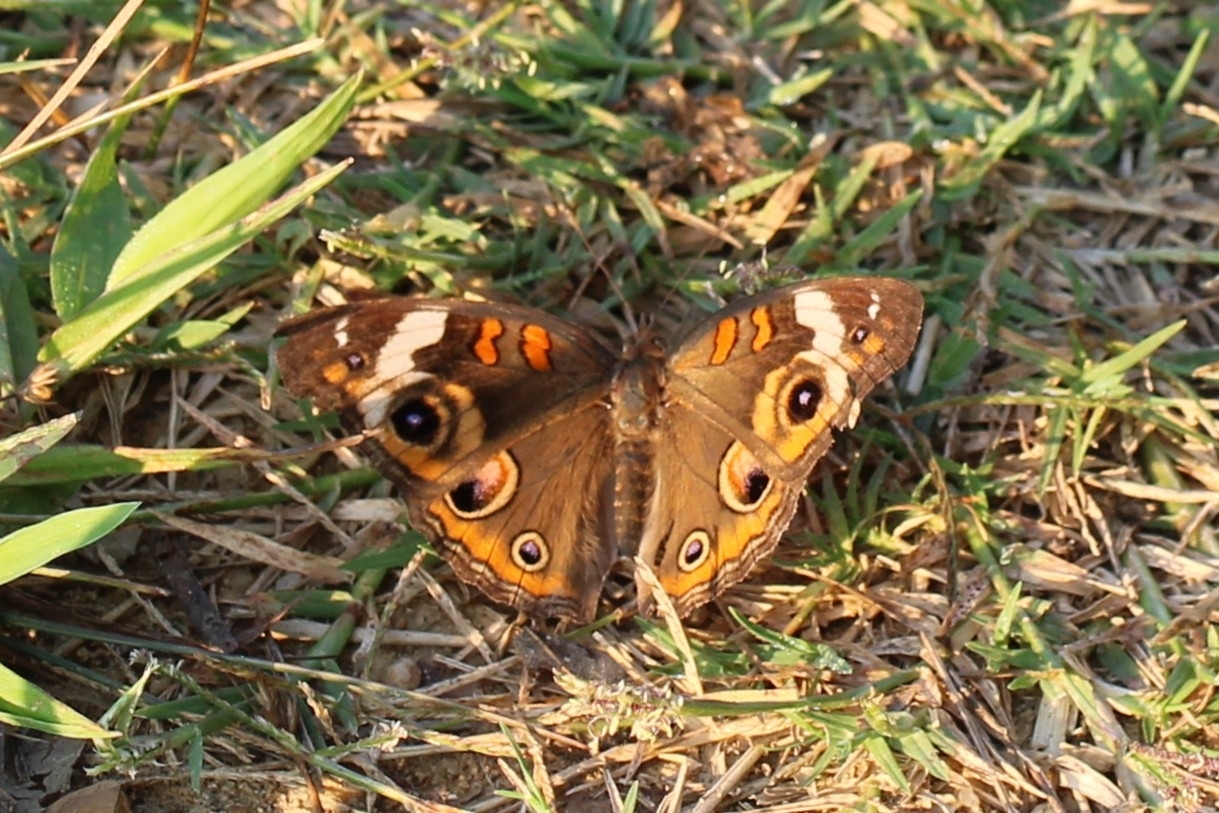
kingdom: Animalia
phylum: Arthropoda
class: Insecta
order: Lepidoptera
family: Nymphalidae
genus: Junonia
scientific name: Junonia coenia
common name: Common buckeye
